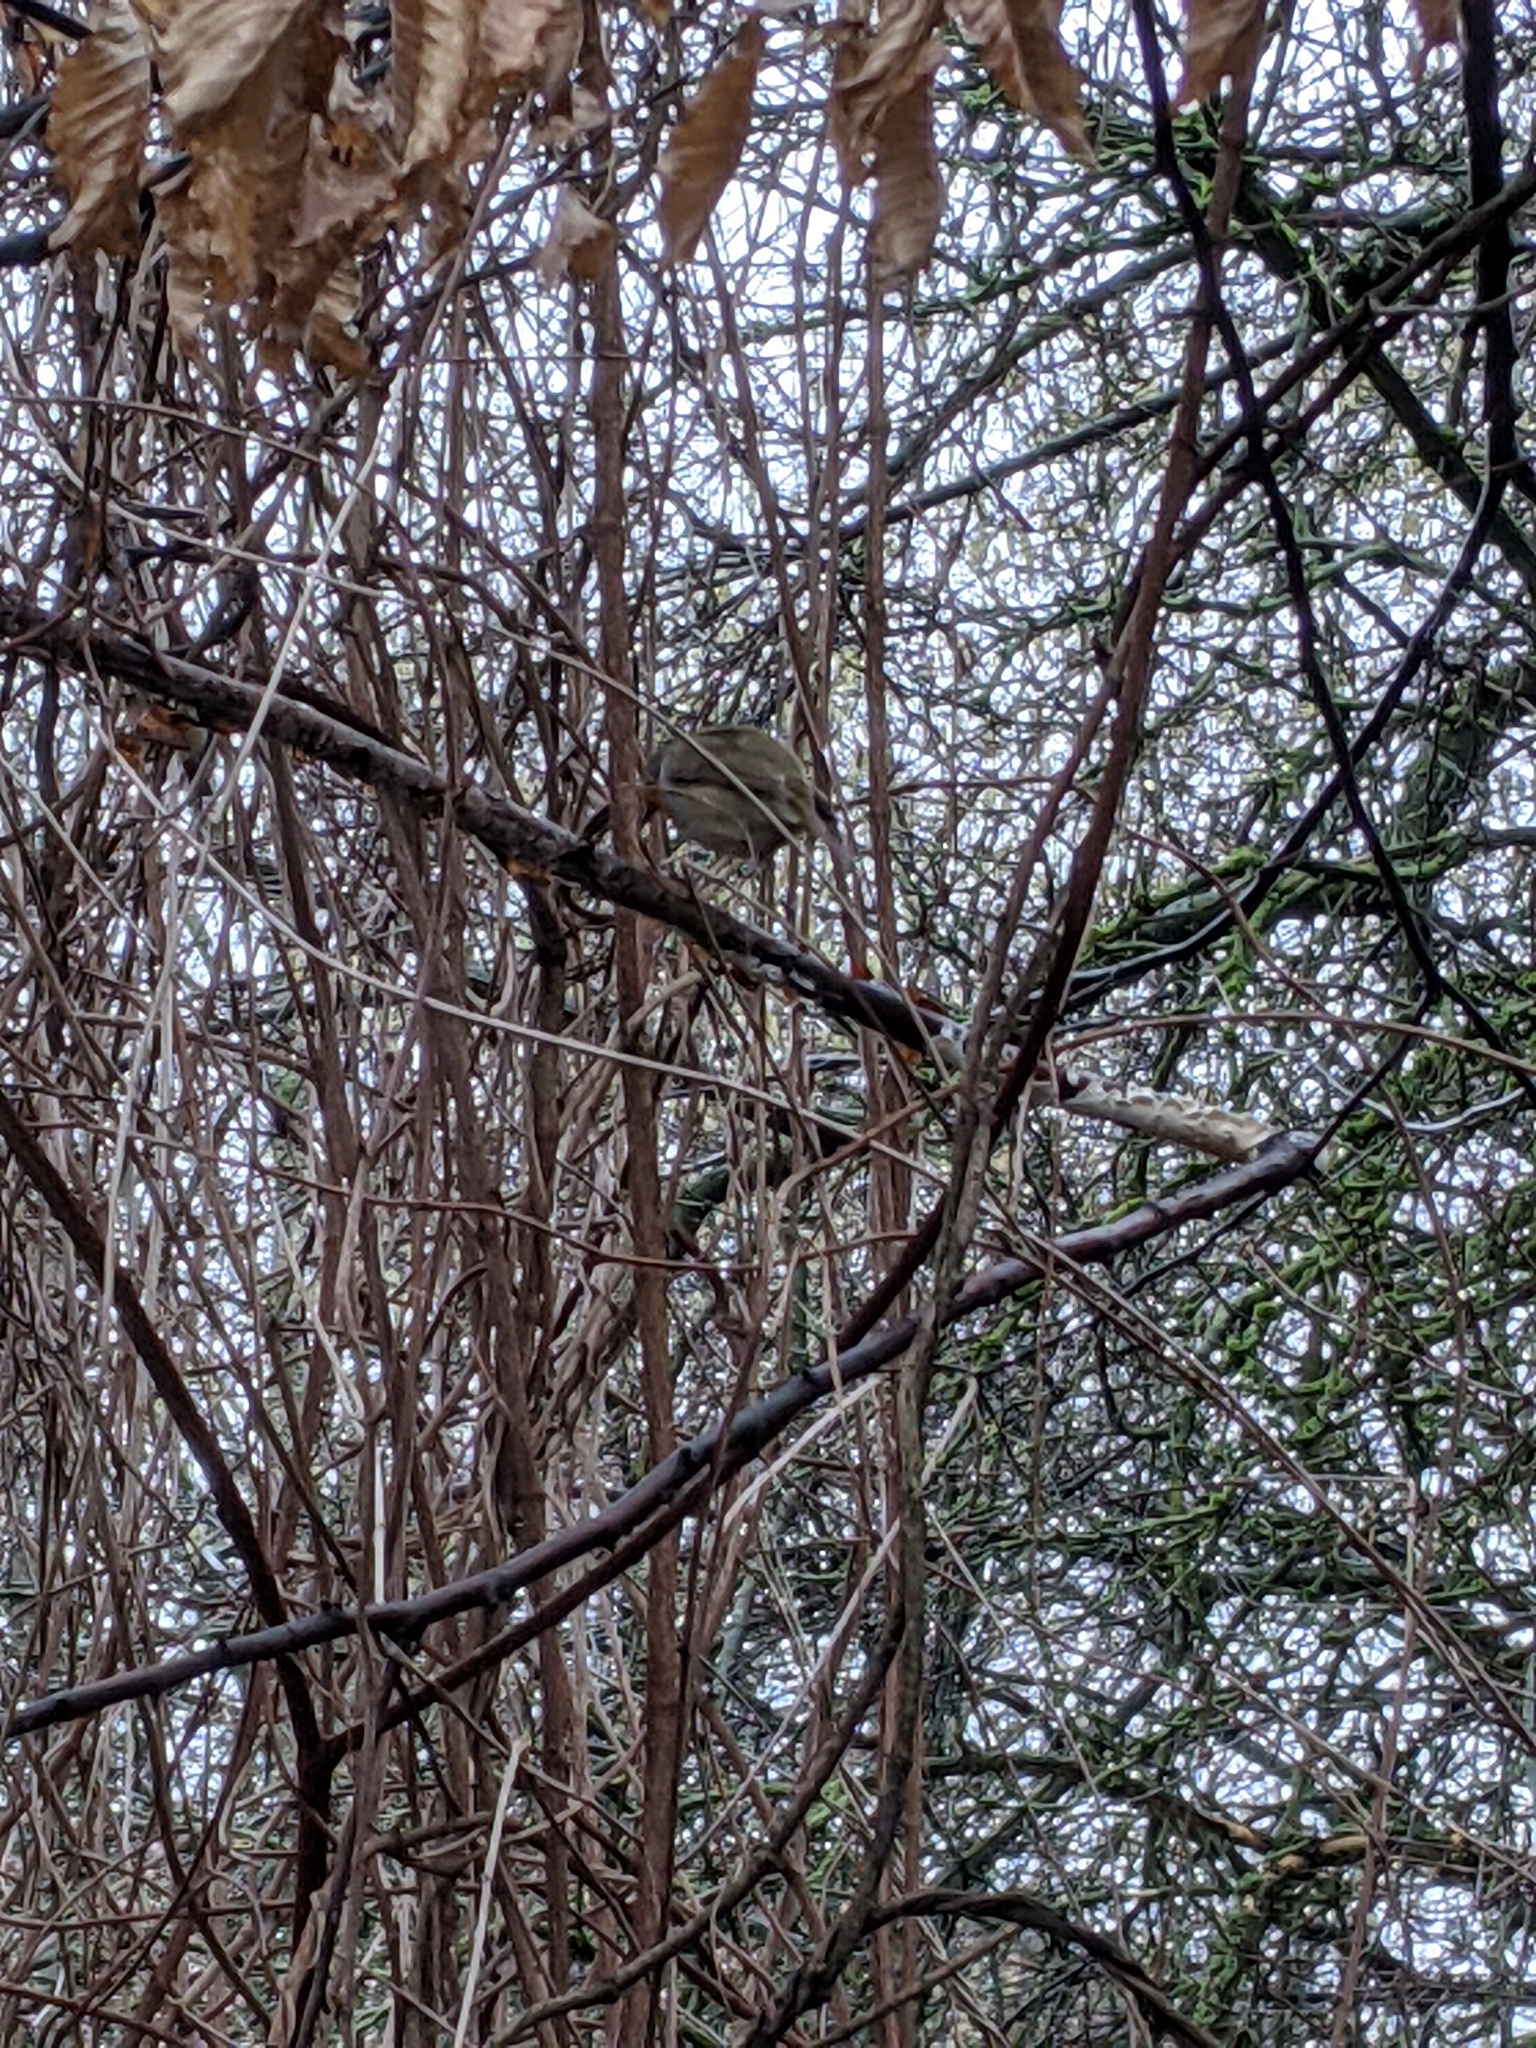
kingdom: Animalia
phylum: Chordata
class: Aves
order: Passeriformes
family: Muscicapidae
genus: Erithacus
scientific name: Erithacus rubecula
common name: European robin
